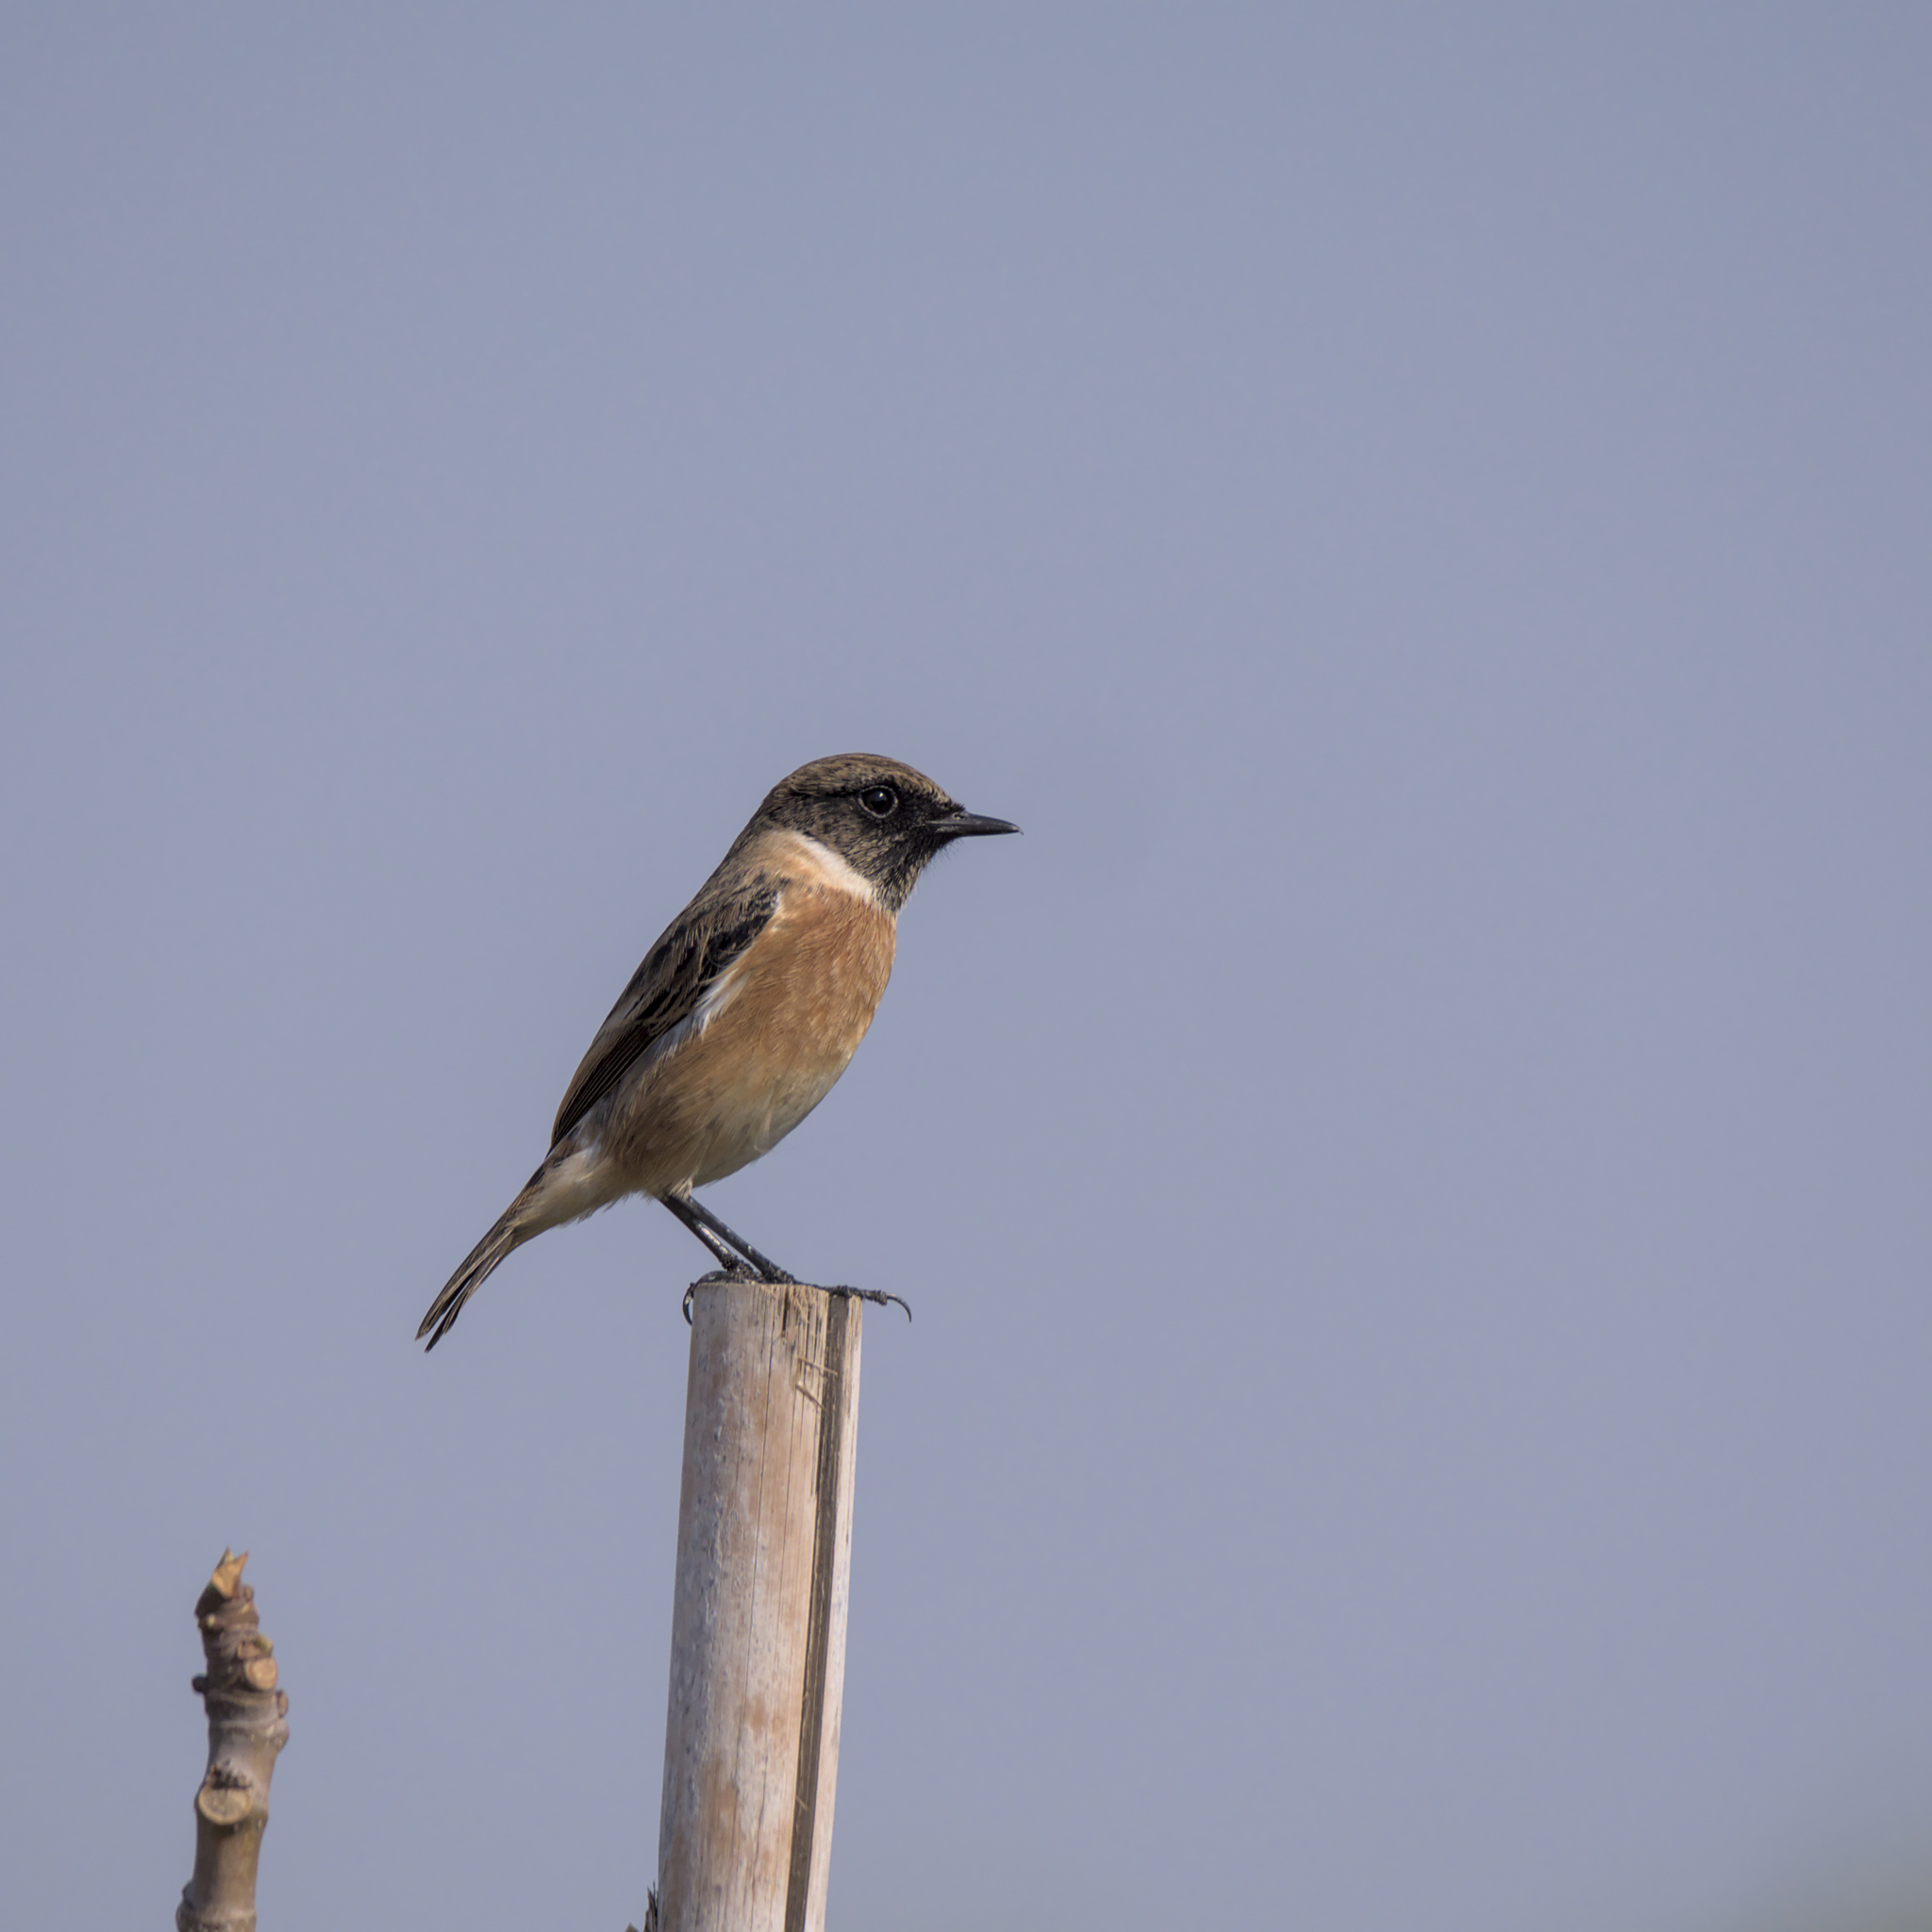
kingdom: Animalia
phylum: Chordata
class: Aves
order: Passeriformes
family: Muscicapidae
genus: Saxicola
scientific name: Saxicola rubicola
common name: European stonechat
